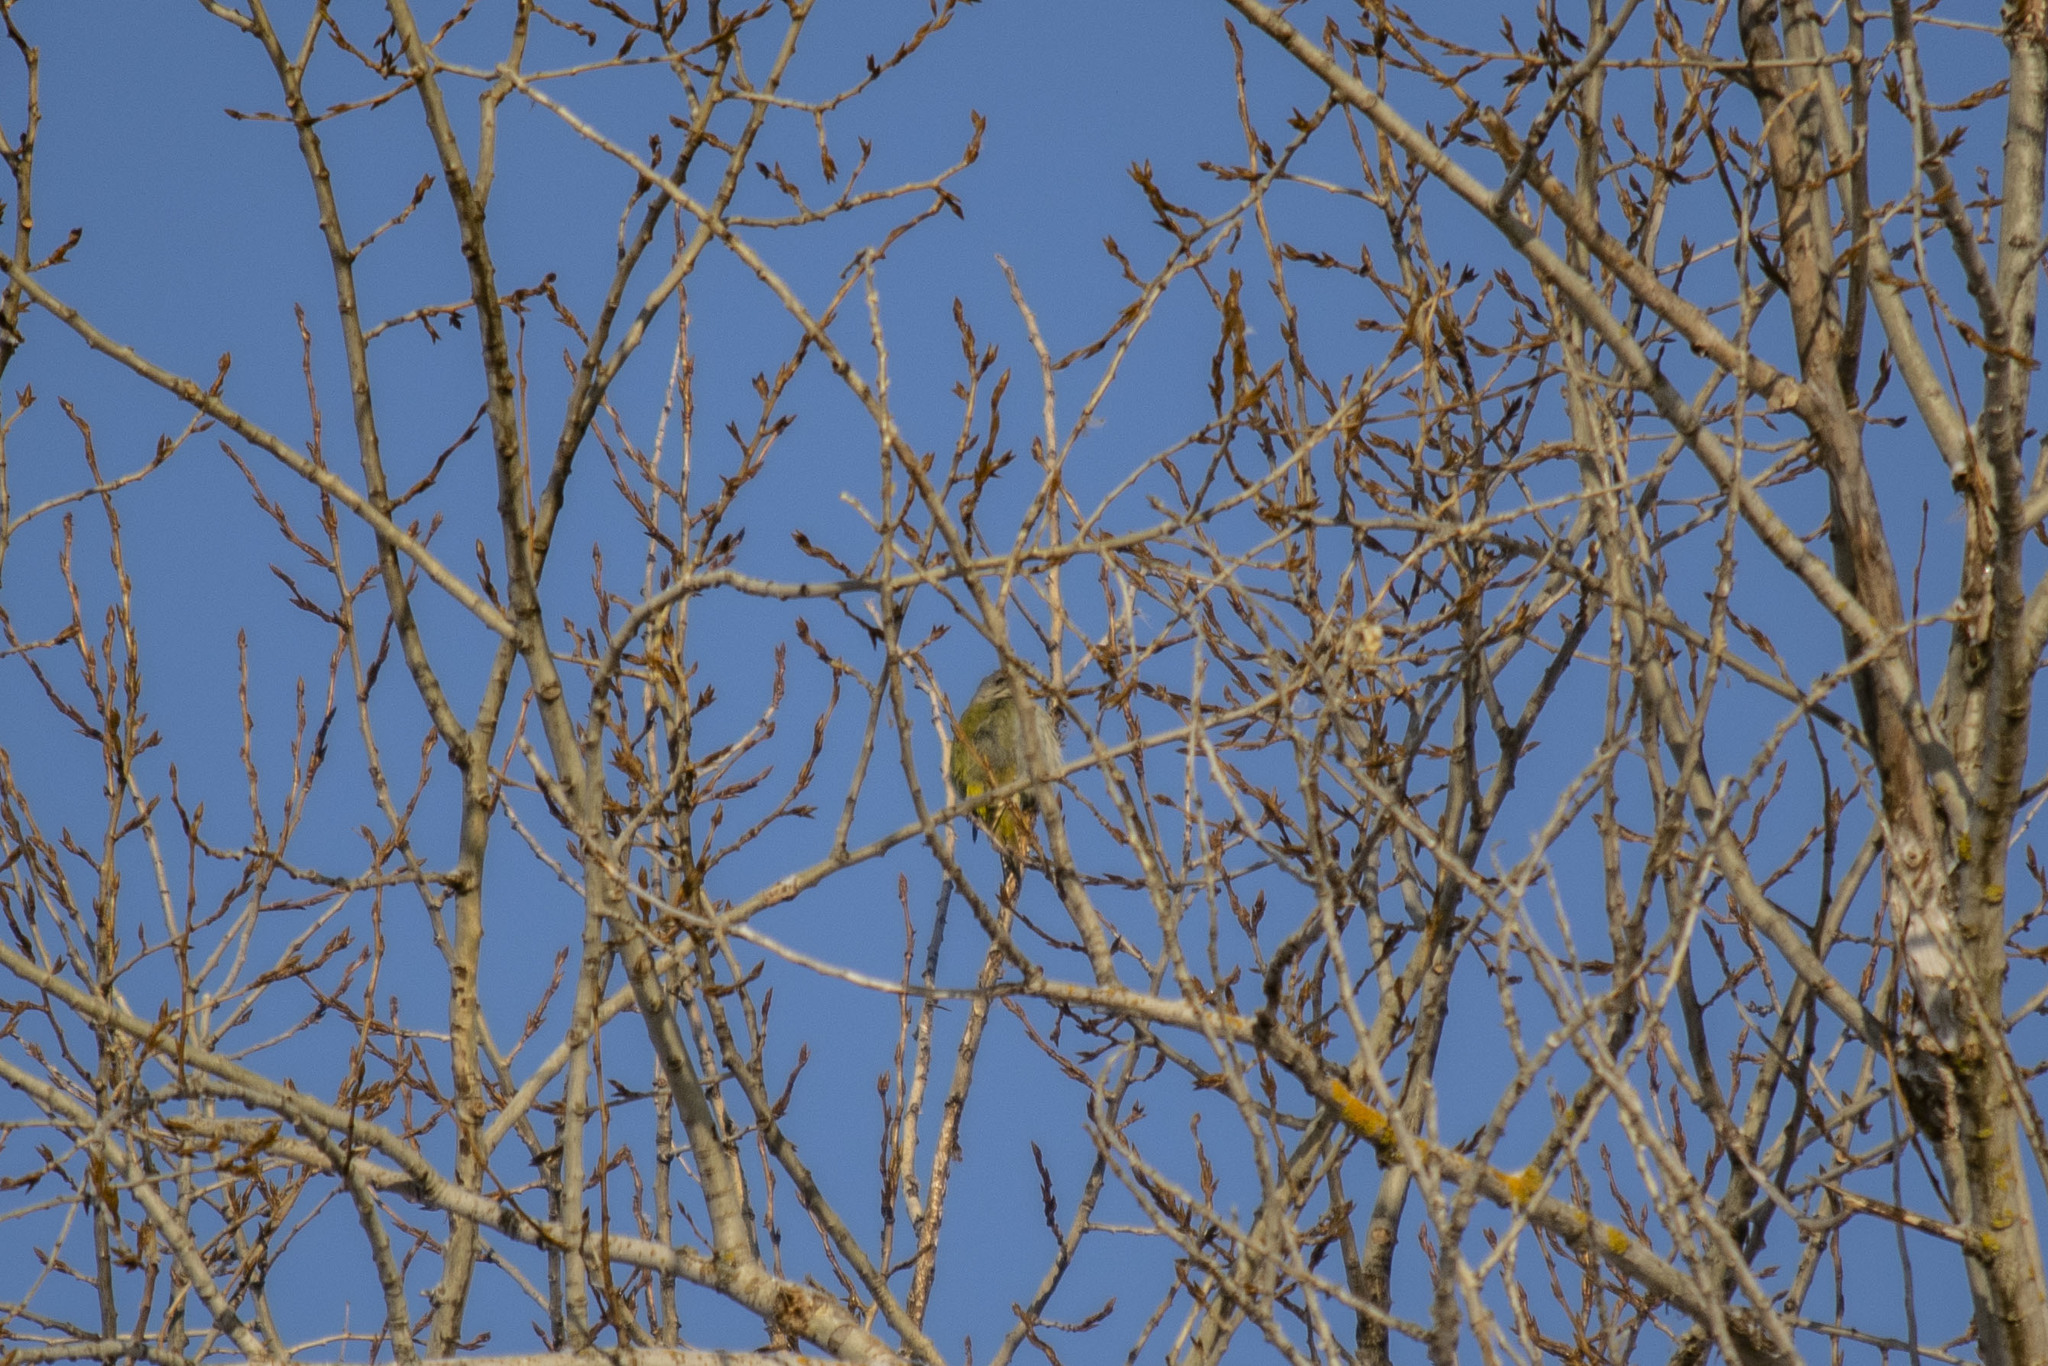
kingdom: Animalia
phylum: Chordata
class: Aves
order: Piciformes
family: Picidae
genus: Picus
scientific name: Picus canus
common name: Grey-headed woodpecker
